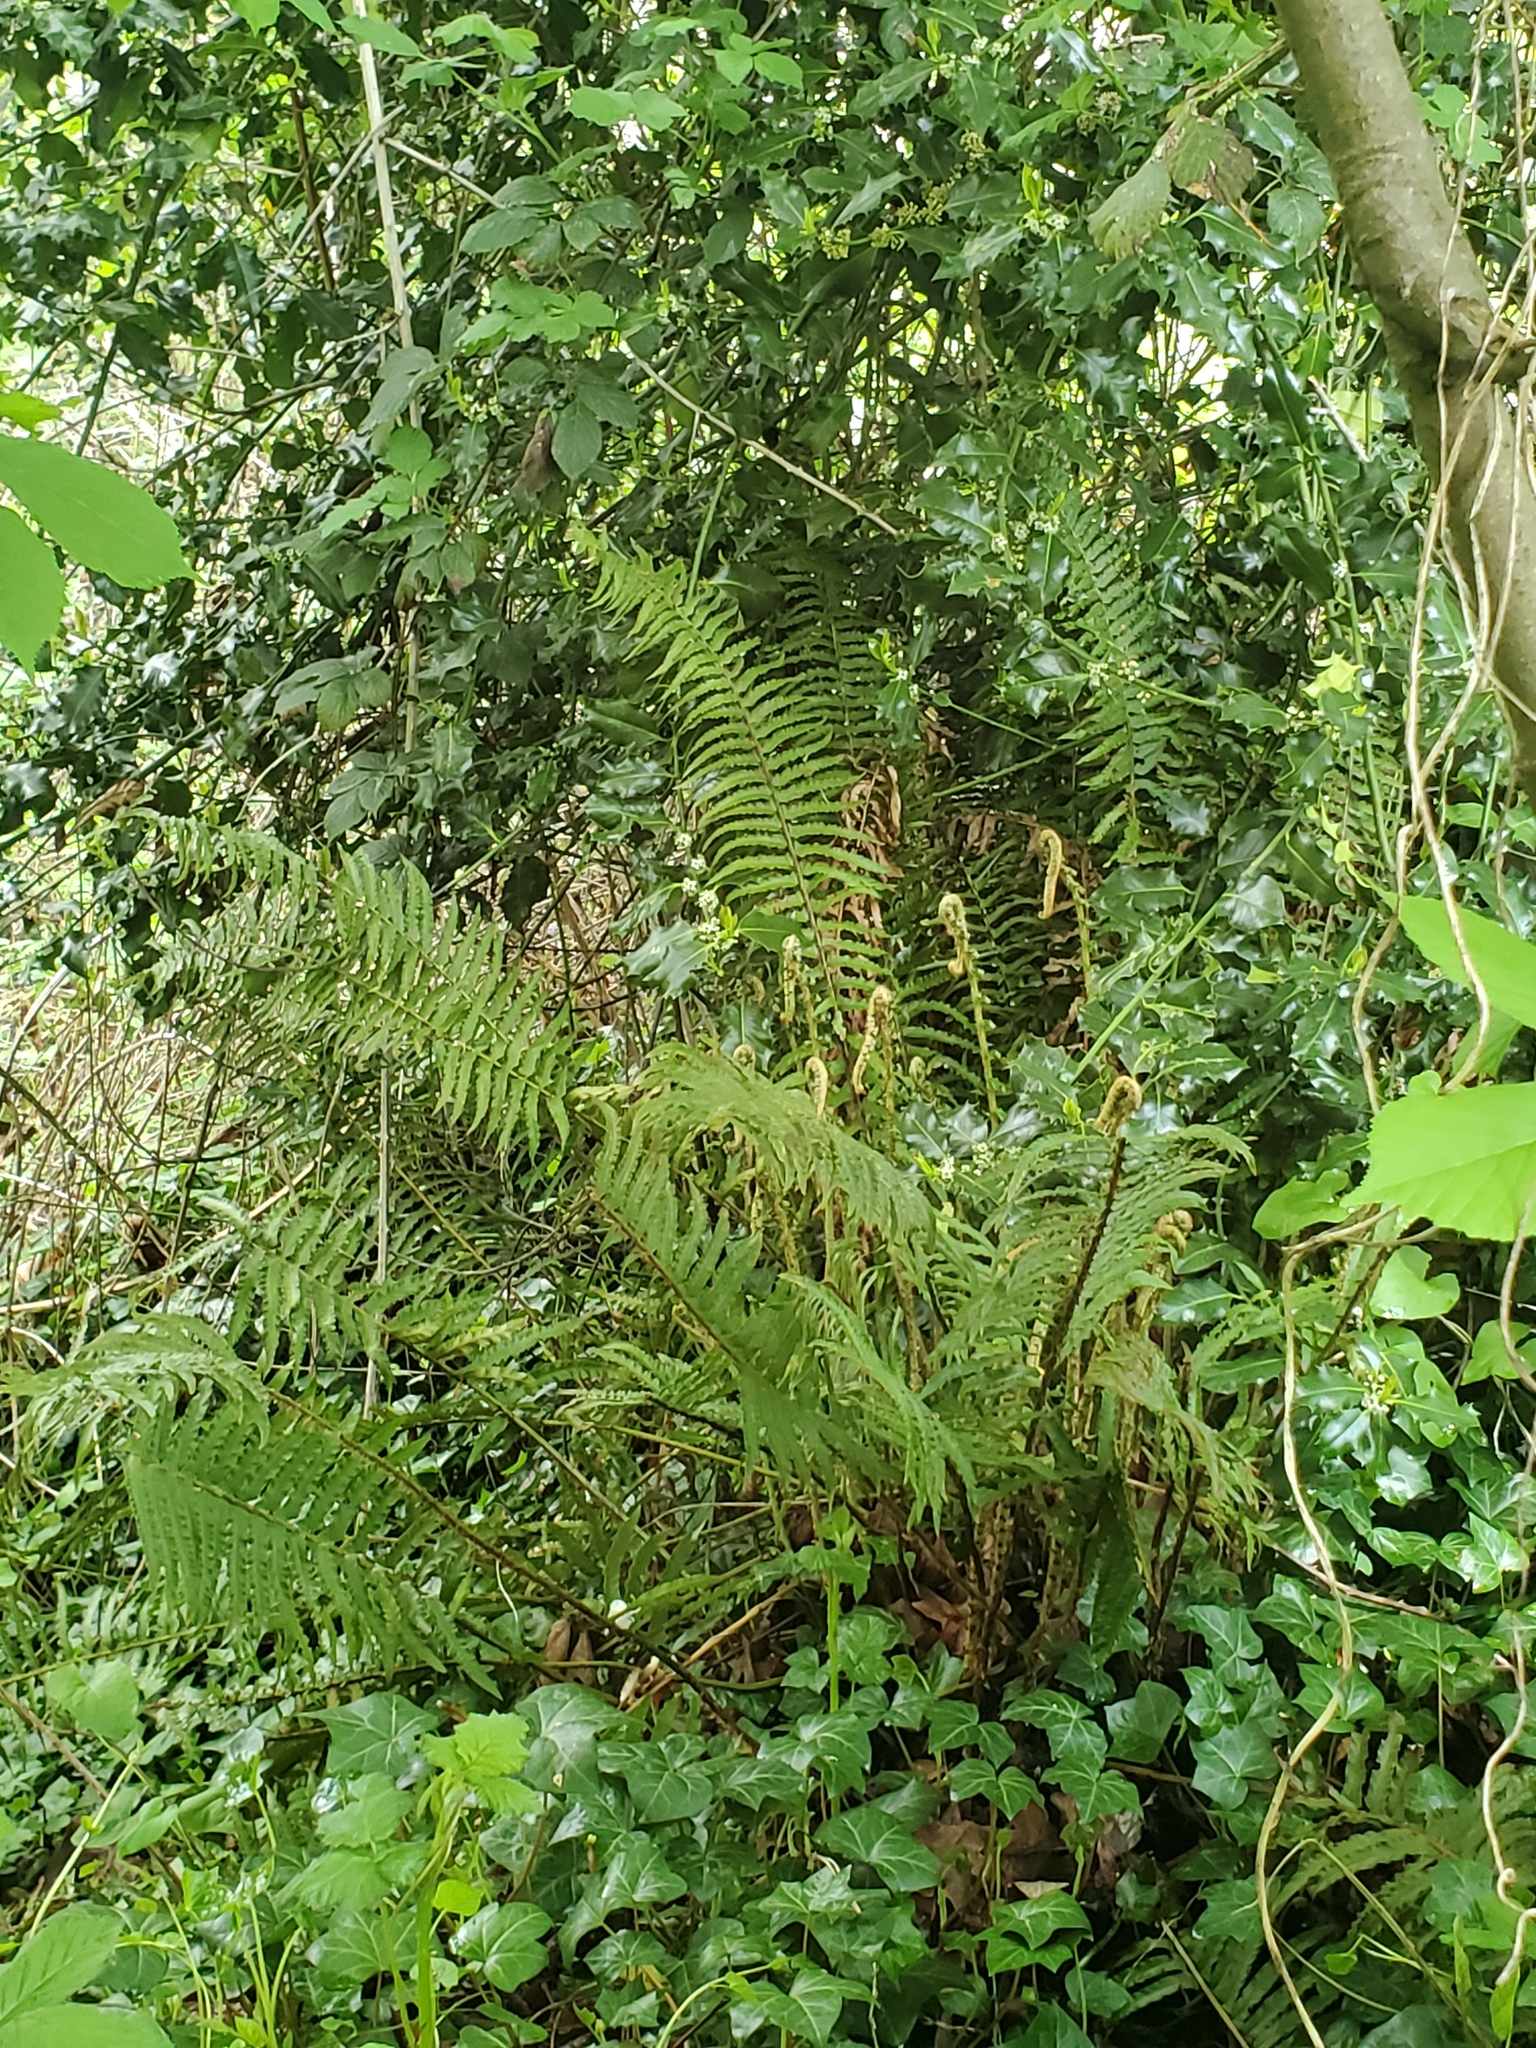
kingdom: Plantae
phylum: Tracheophyta
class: Polypodiopsida
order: Polypodiales
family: Dryopteridaceae
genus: Polystichum
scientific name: Polystichum munitum
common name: Western sword-fern
